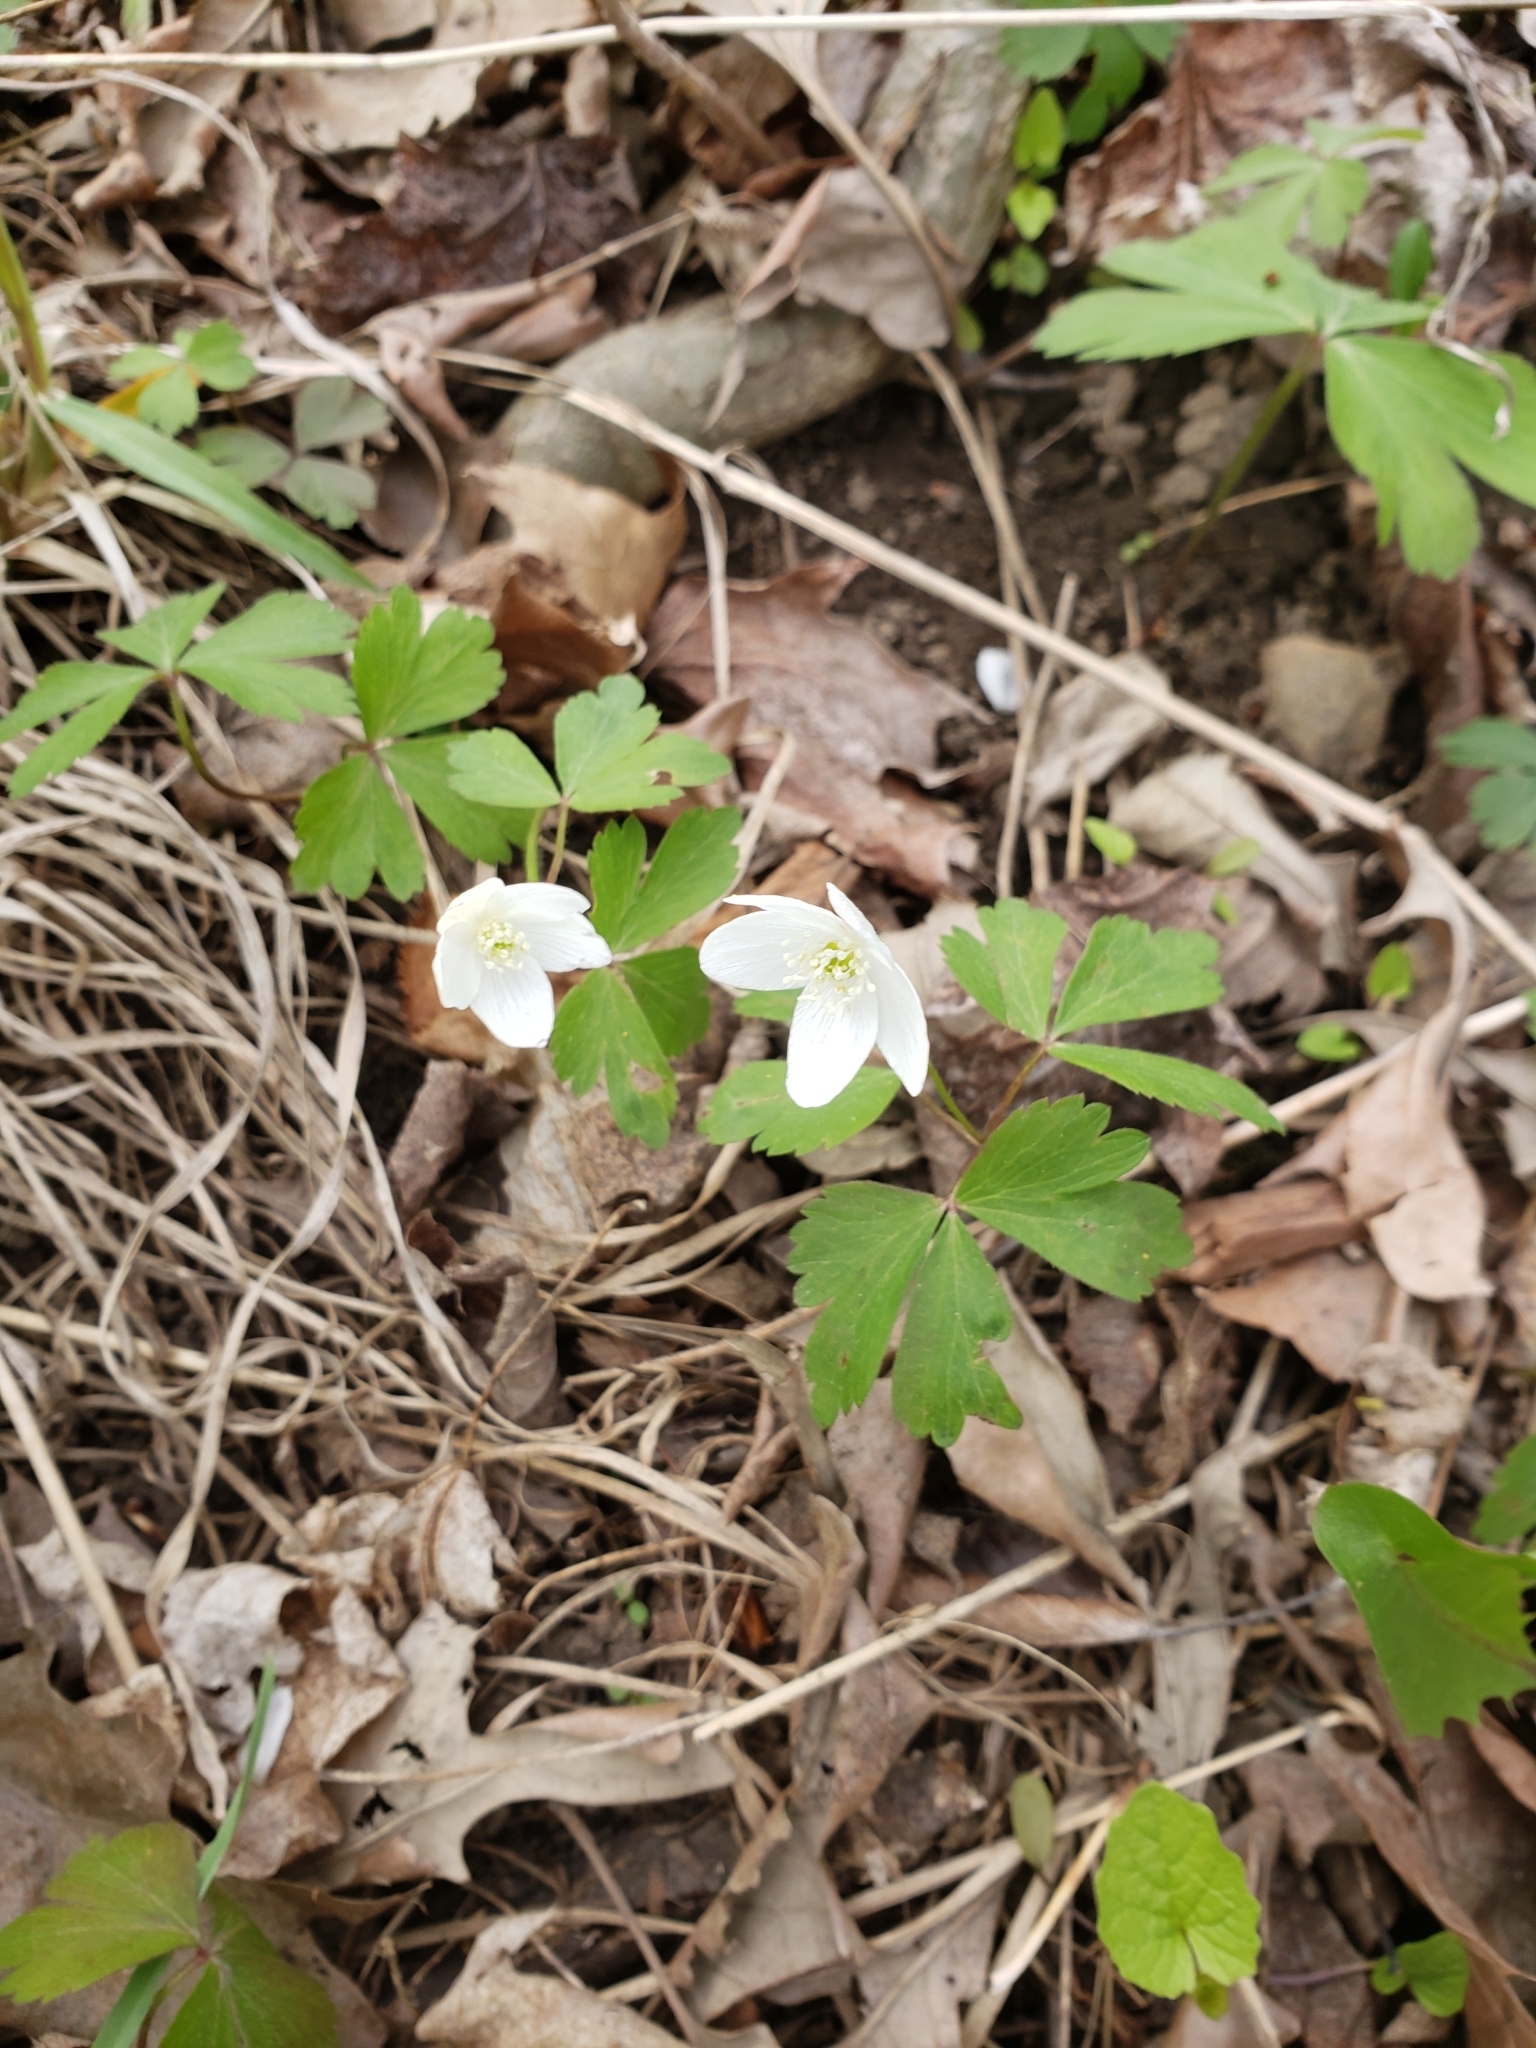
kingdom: Plantae
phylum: Tracheophyta
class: Magnoliopsida
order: Ranunculales
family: Ranunculaceae
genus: Anemone
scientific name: Anemone quinquefolia
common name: Wood anemone
